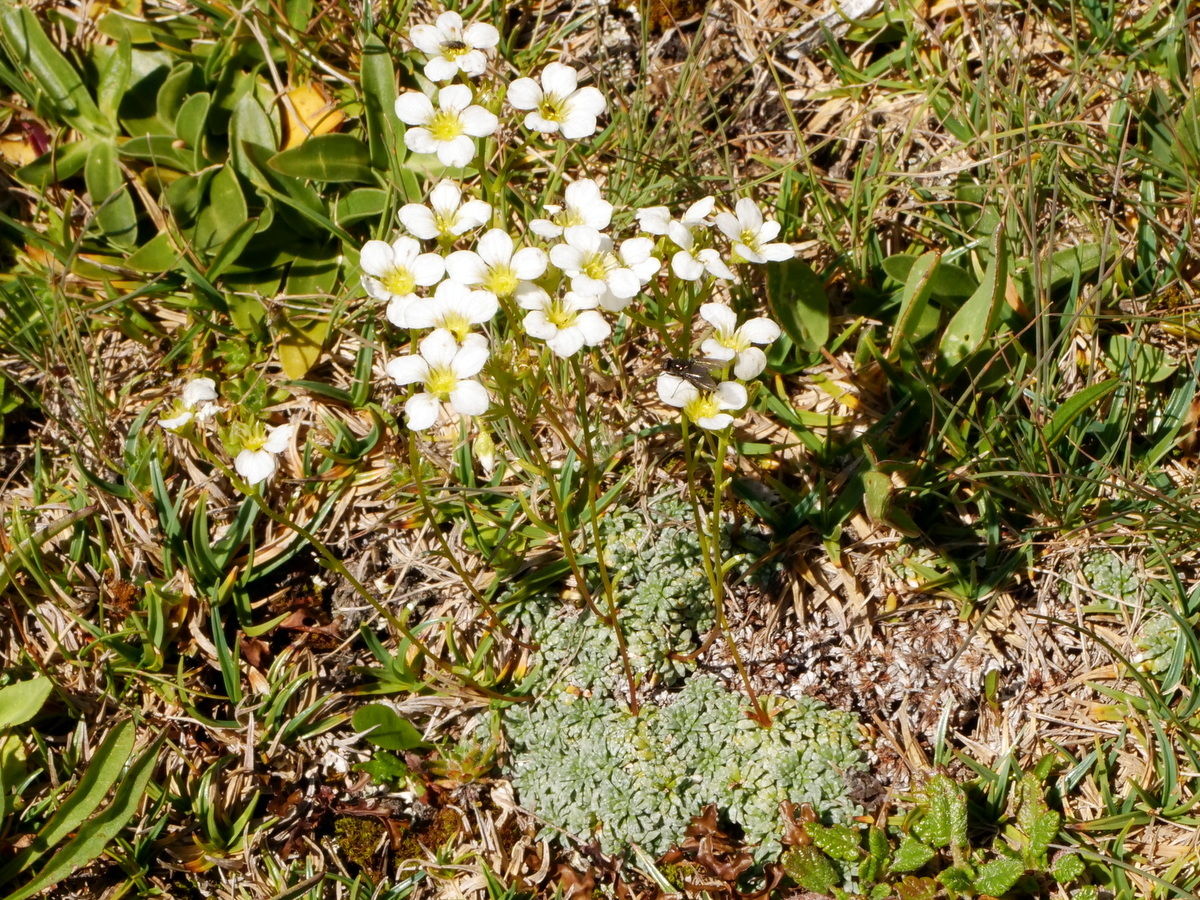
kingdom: Plantae
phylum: Tracheophyta
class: Magnoliopsida
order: Saxifragales
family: Saxifragaceae
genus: Saxifraga
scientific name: Saxifraga caesia
